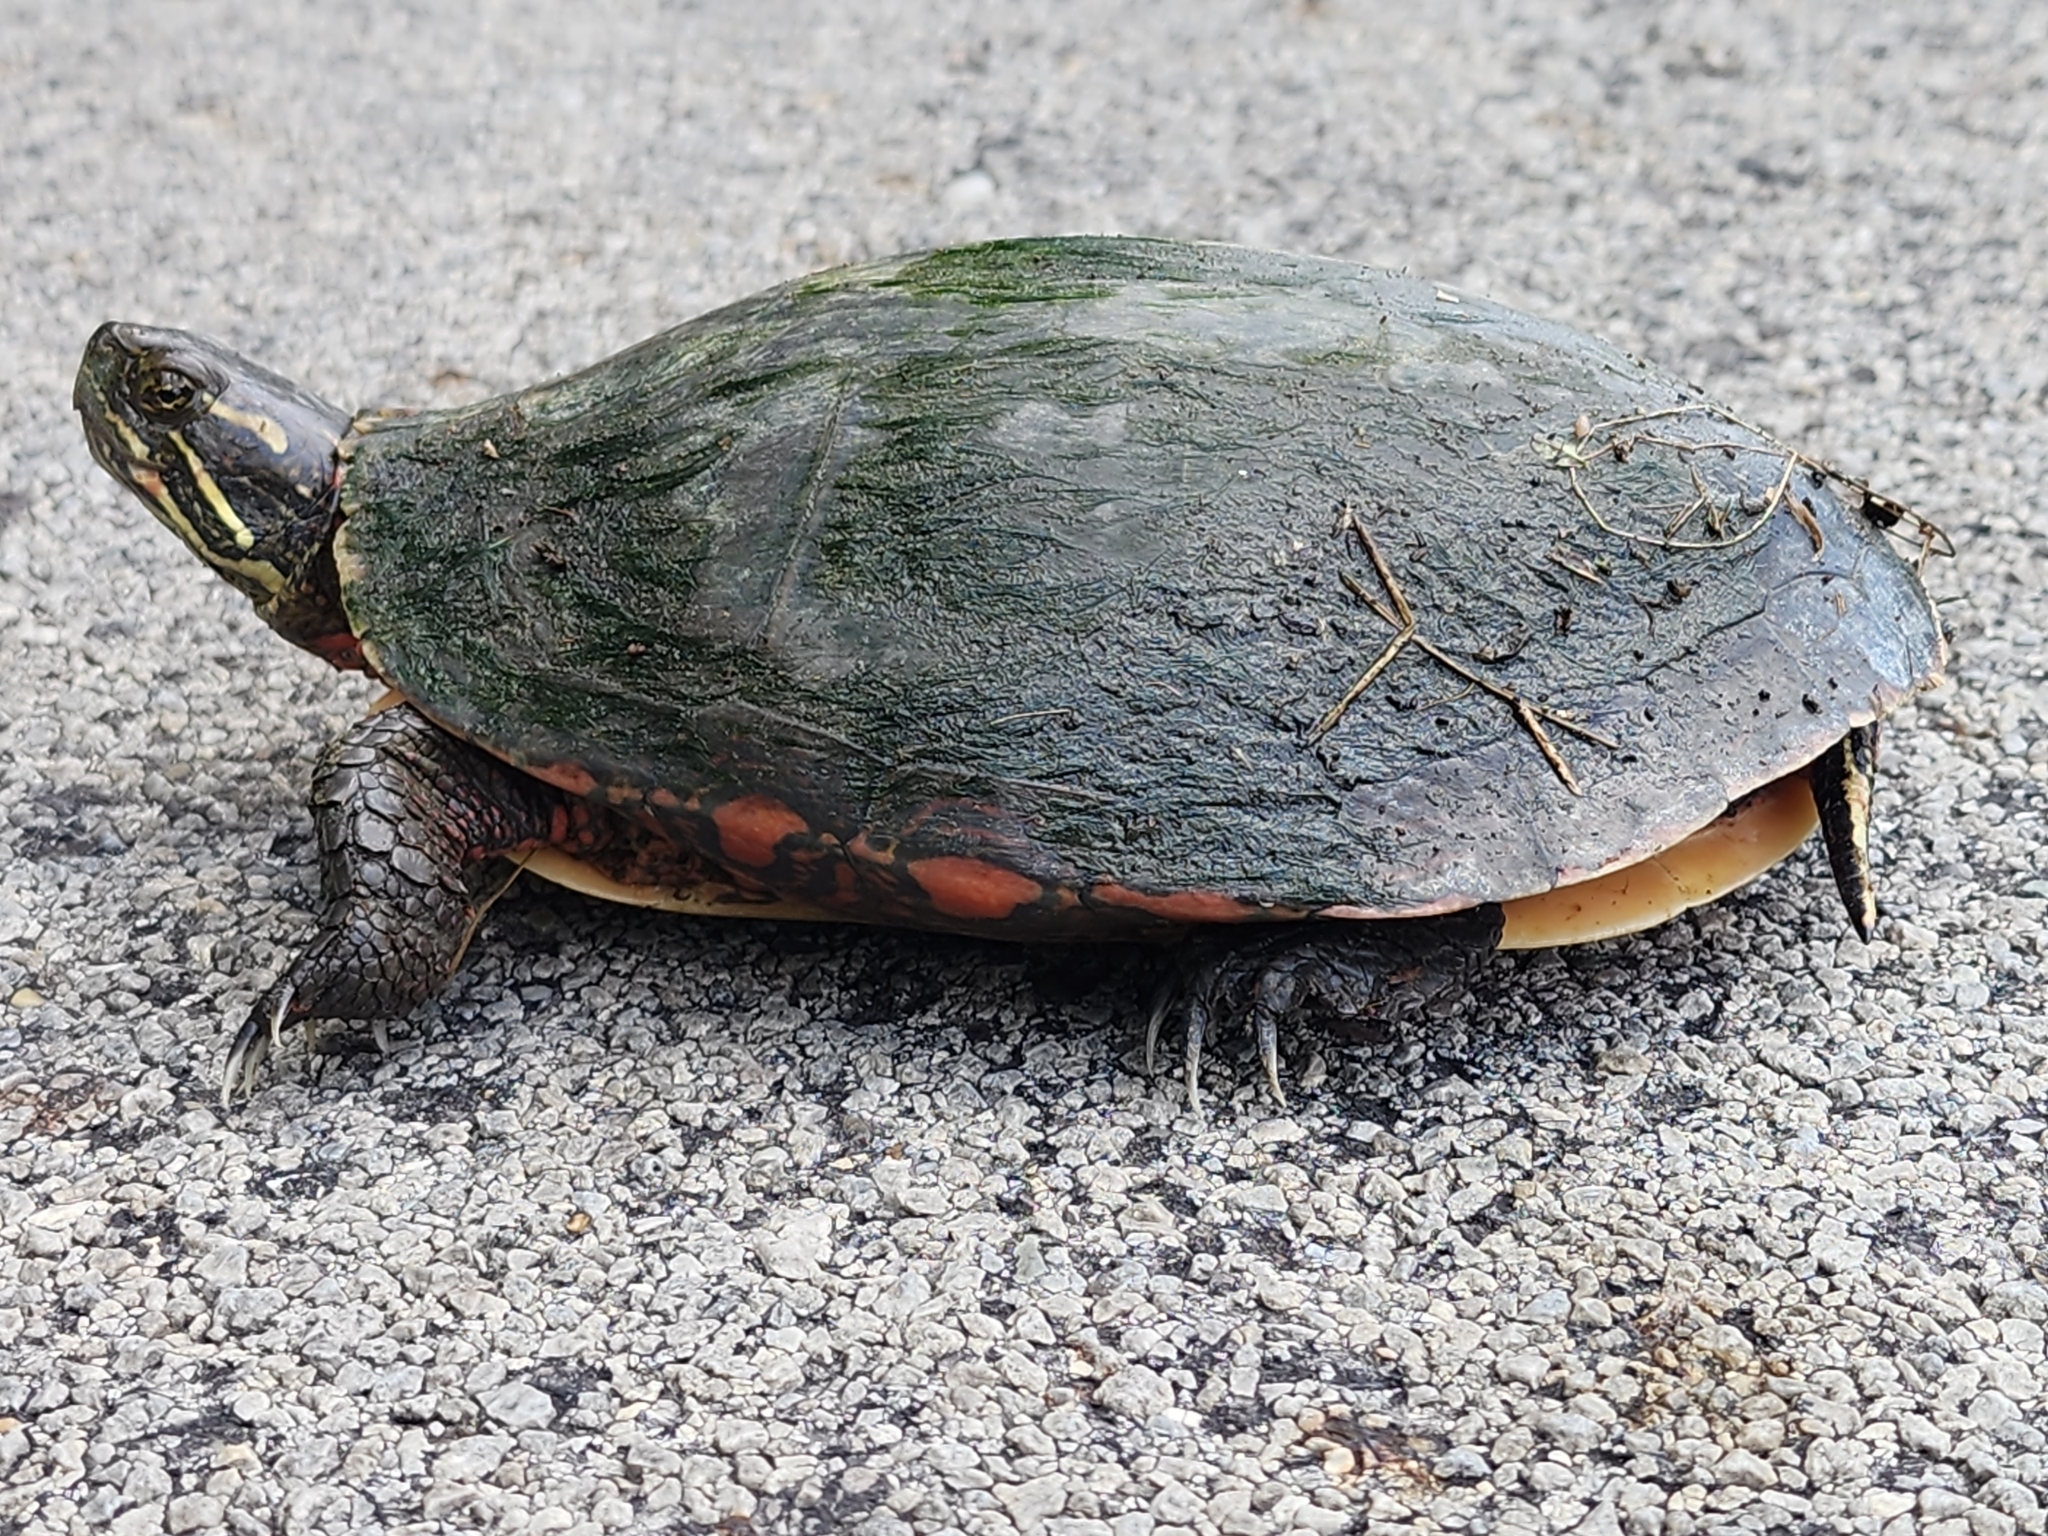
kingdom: Animalia
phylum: Chordata
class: Testudines
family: Emydidae
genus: Chrysemys
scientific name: Chrysemys picta
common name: Painted turtle
